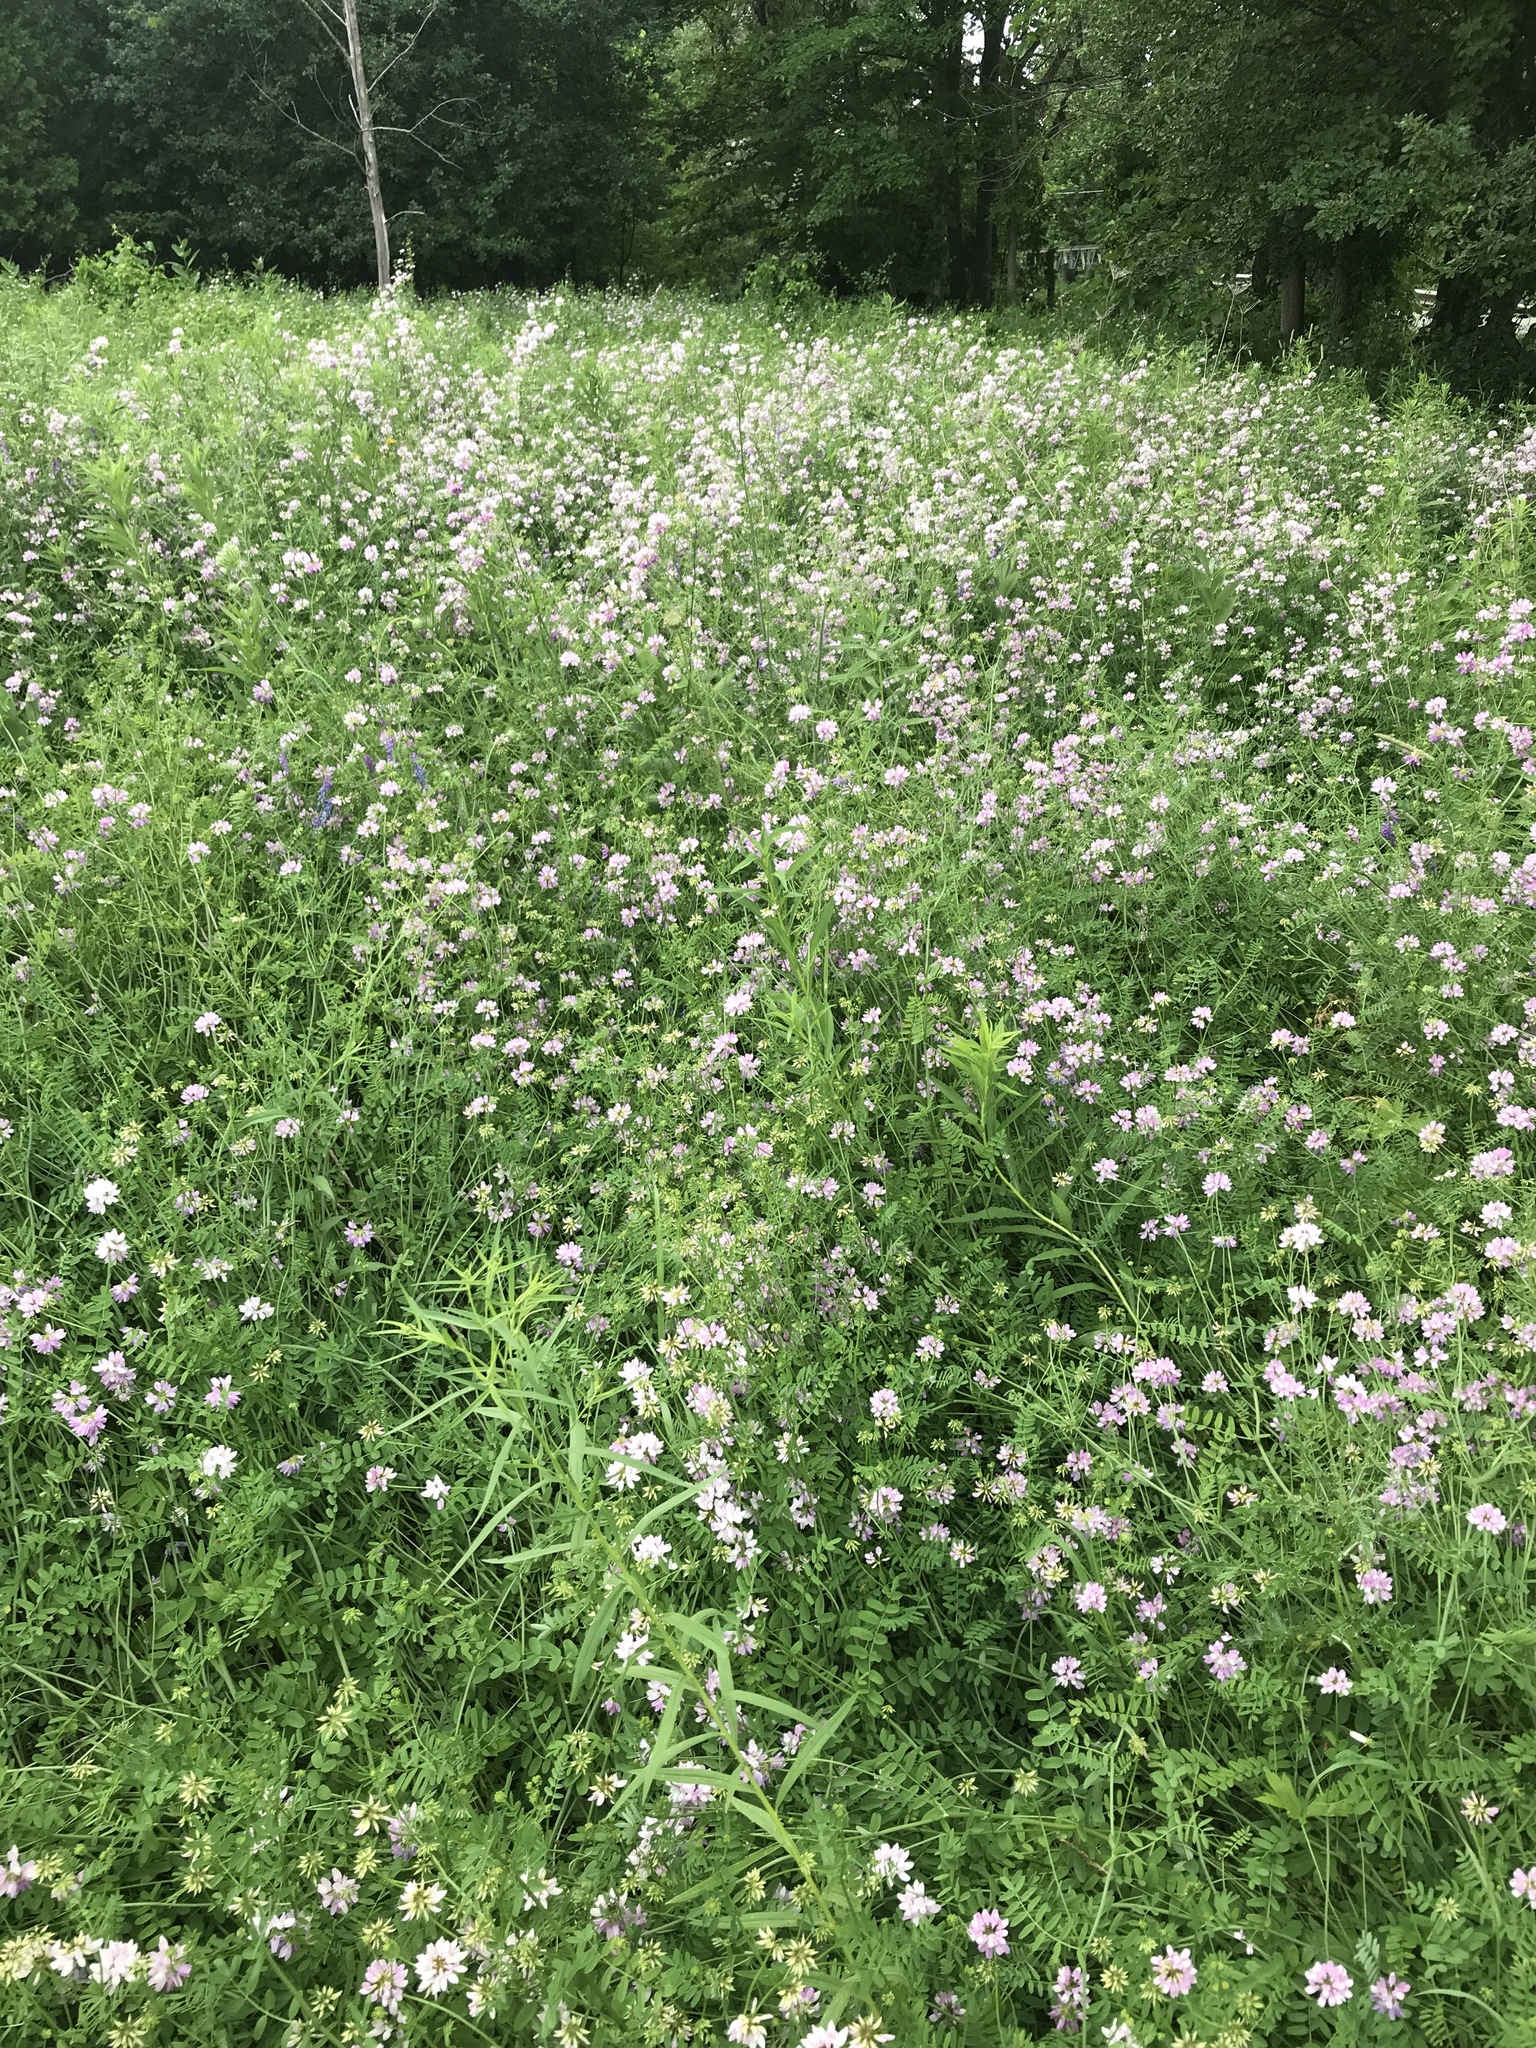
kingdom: Plantae
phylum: Tracheophyta
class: Magnoliopsida
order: Fabales
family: Fabaceae
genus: Coronilla
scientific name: Coronilla varia
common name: Crownvetch
